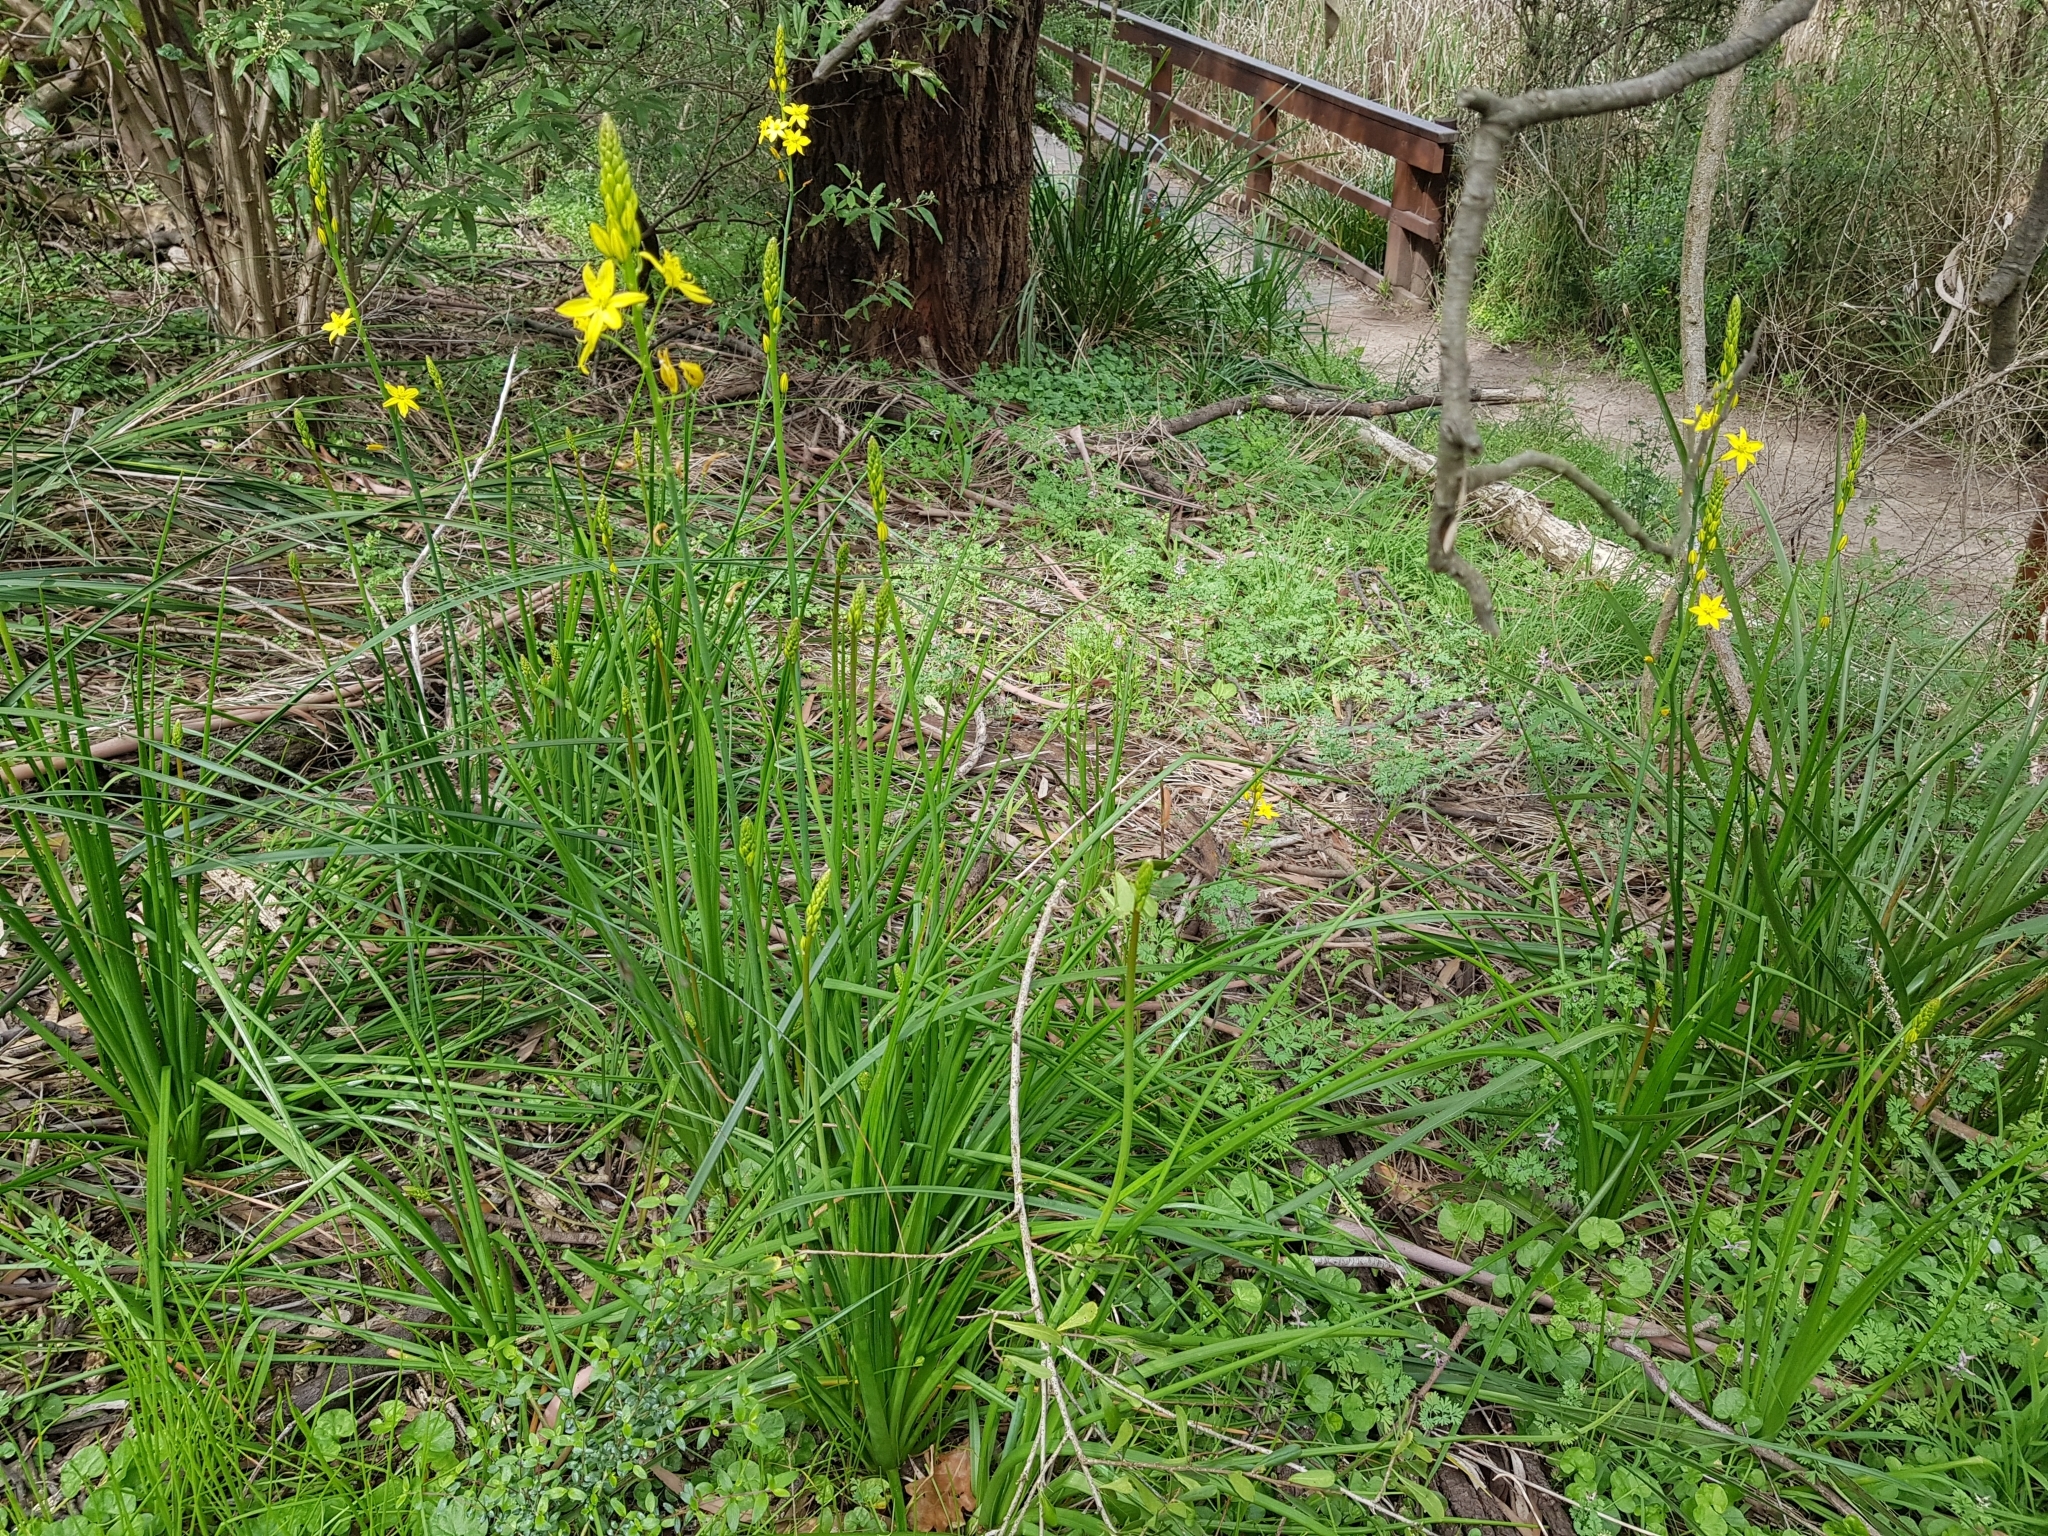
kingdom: Plantae
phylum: Tracheophyta
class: Liliopsida
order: Asparagales
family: Asphodelaceae
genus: Bulbine
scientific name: Bulbine bulbosa
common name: Golden-lily
